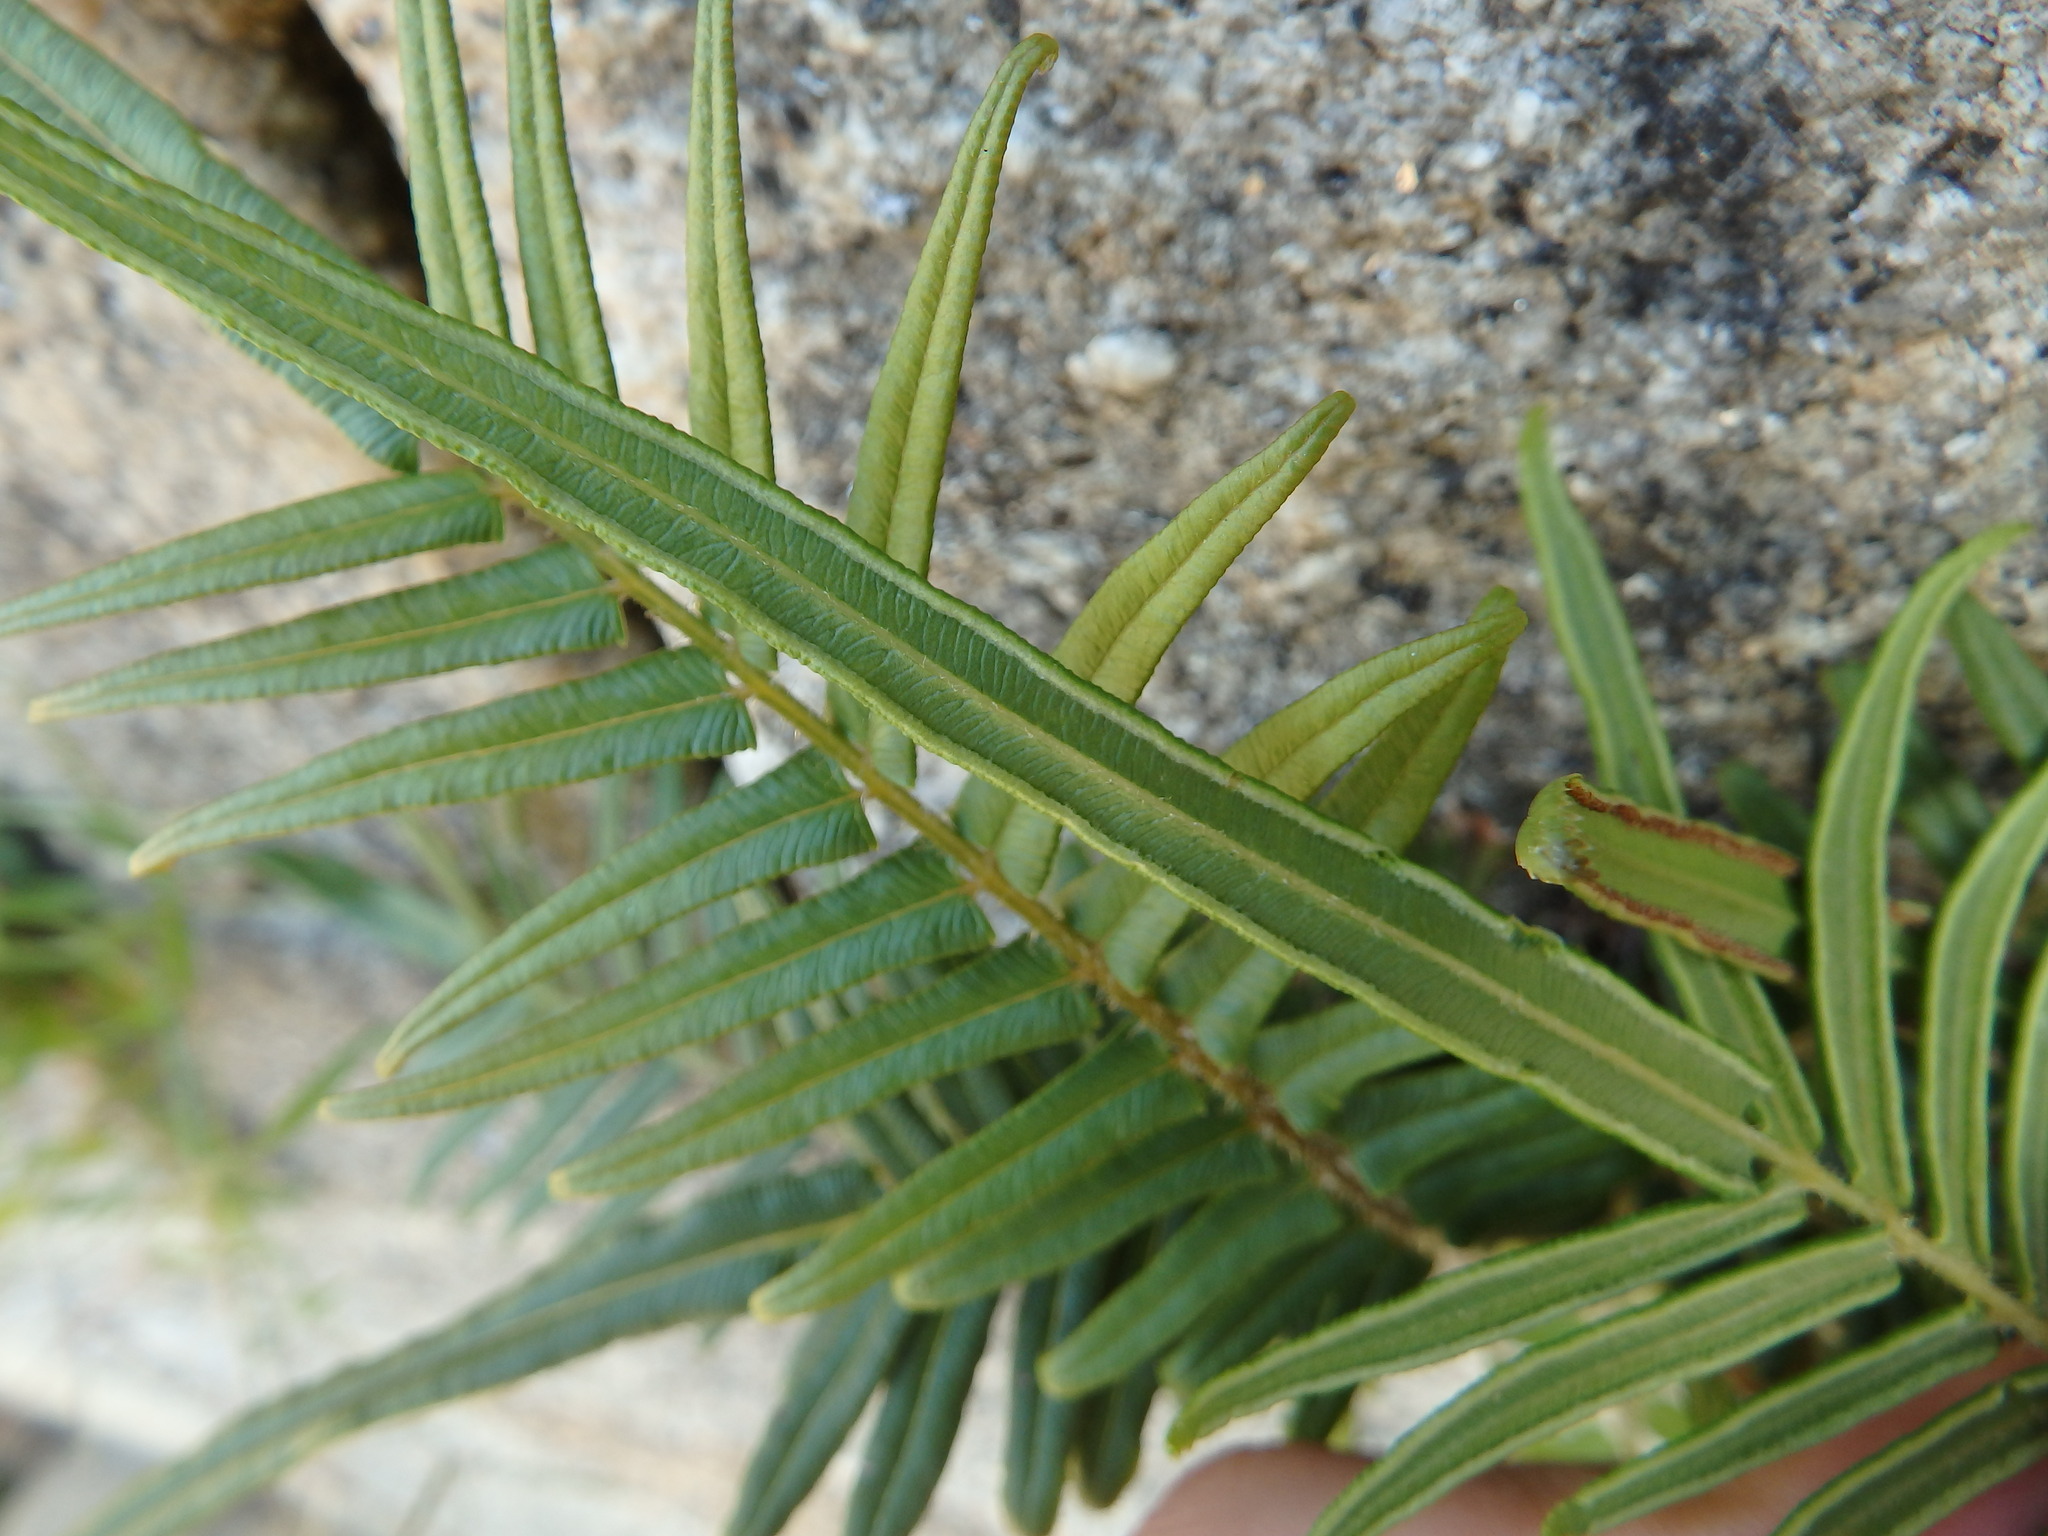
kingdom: Plantae
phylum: Tracheophyta
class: Polypodiopsida
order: Polypodiales
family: Pteridaceae
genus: Pteris
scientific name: Pteris vittata
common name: Ladder brake
